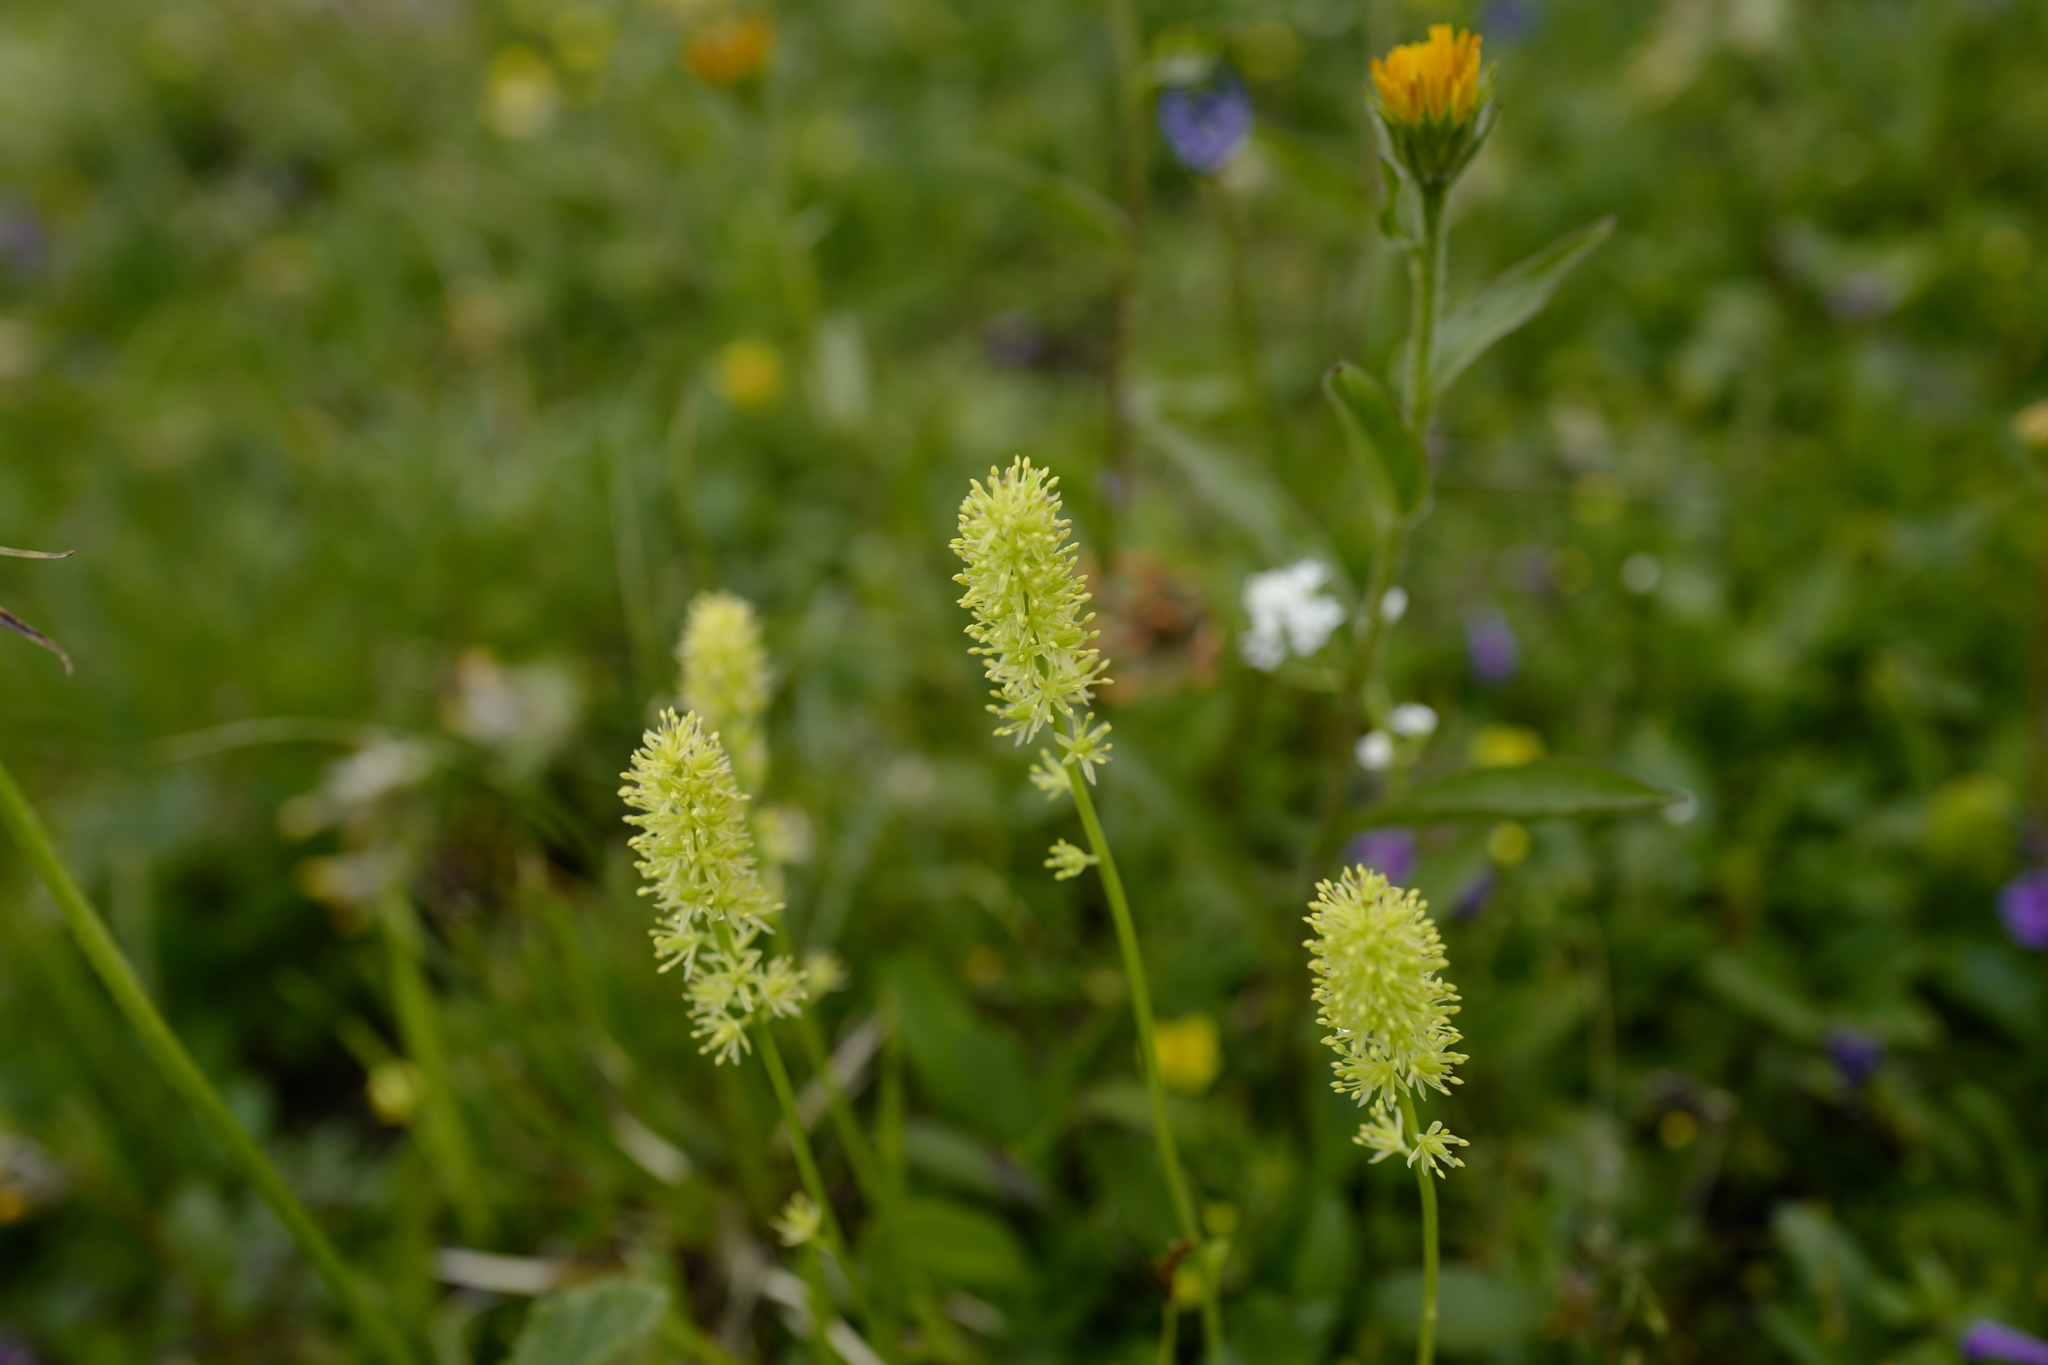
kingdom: Plantae
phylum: Tracheophyta
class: Liliopsida
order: Alismatales
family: Tofieldiaceae
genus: Tofieldia
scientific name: Tofieldia calyculata
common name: German-asphodel
